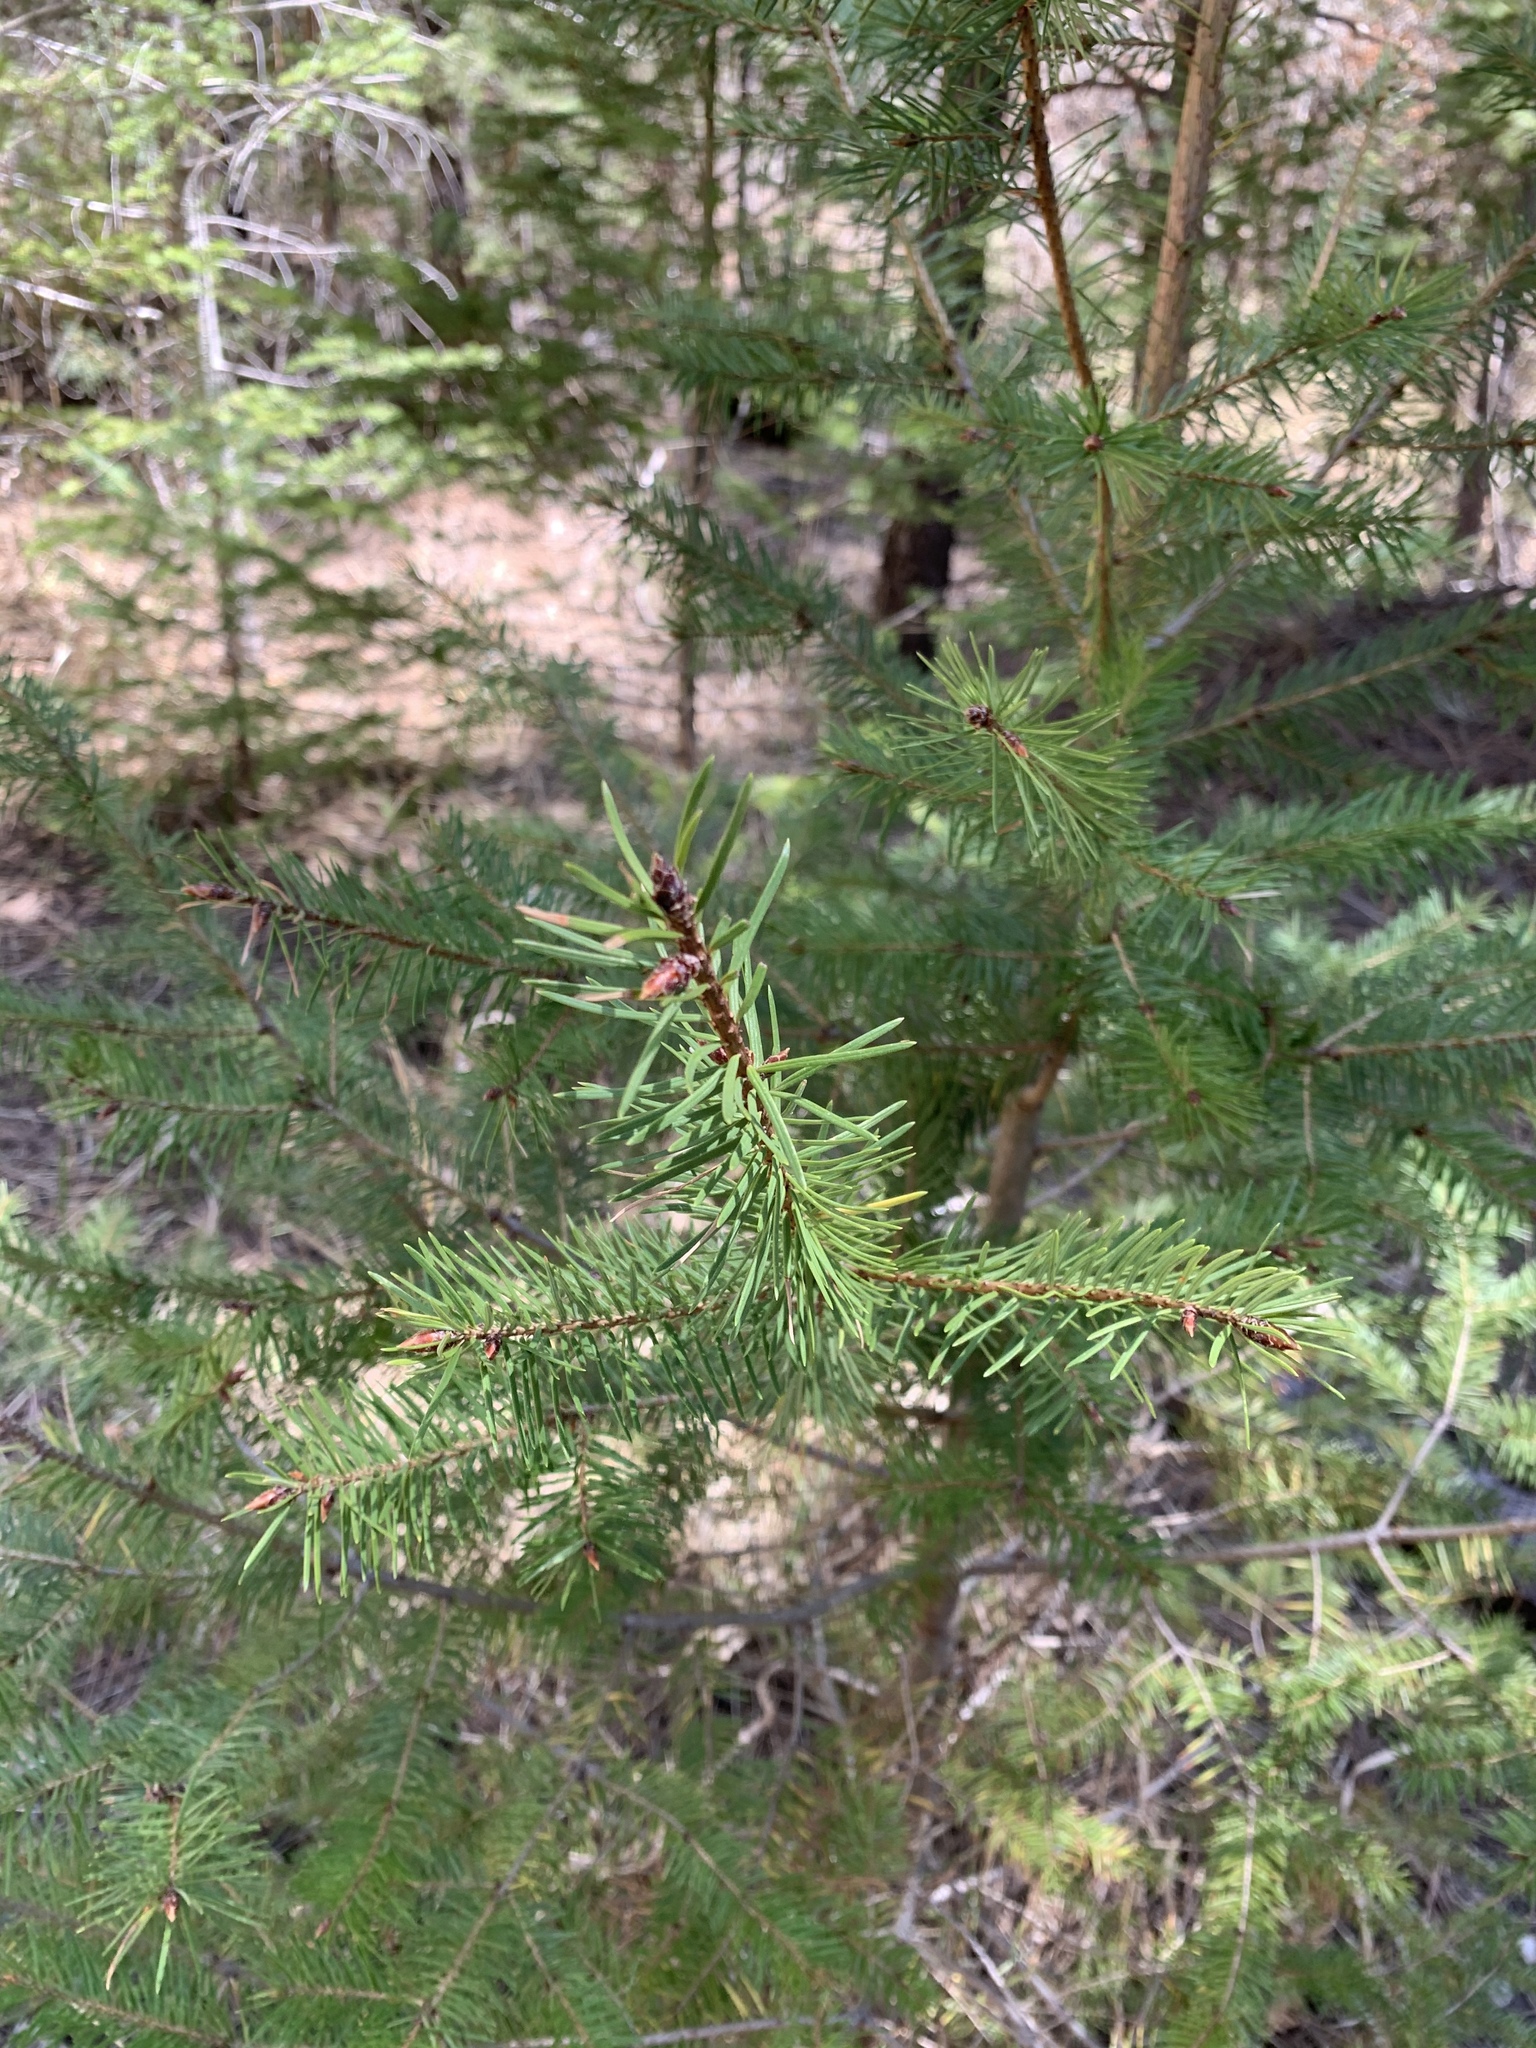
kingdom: Plantae
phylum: Tracheophyta
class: Pinopsida
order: Pinales
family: Pinaceae
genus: Pseudotsuga
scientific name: Pseudotsuga menziesii
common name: Douglas fir
